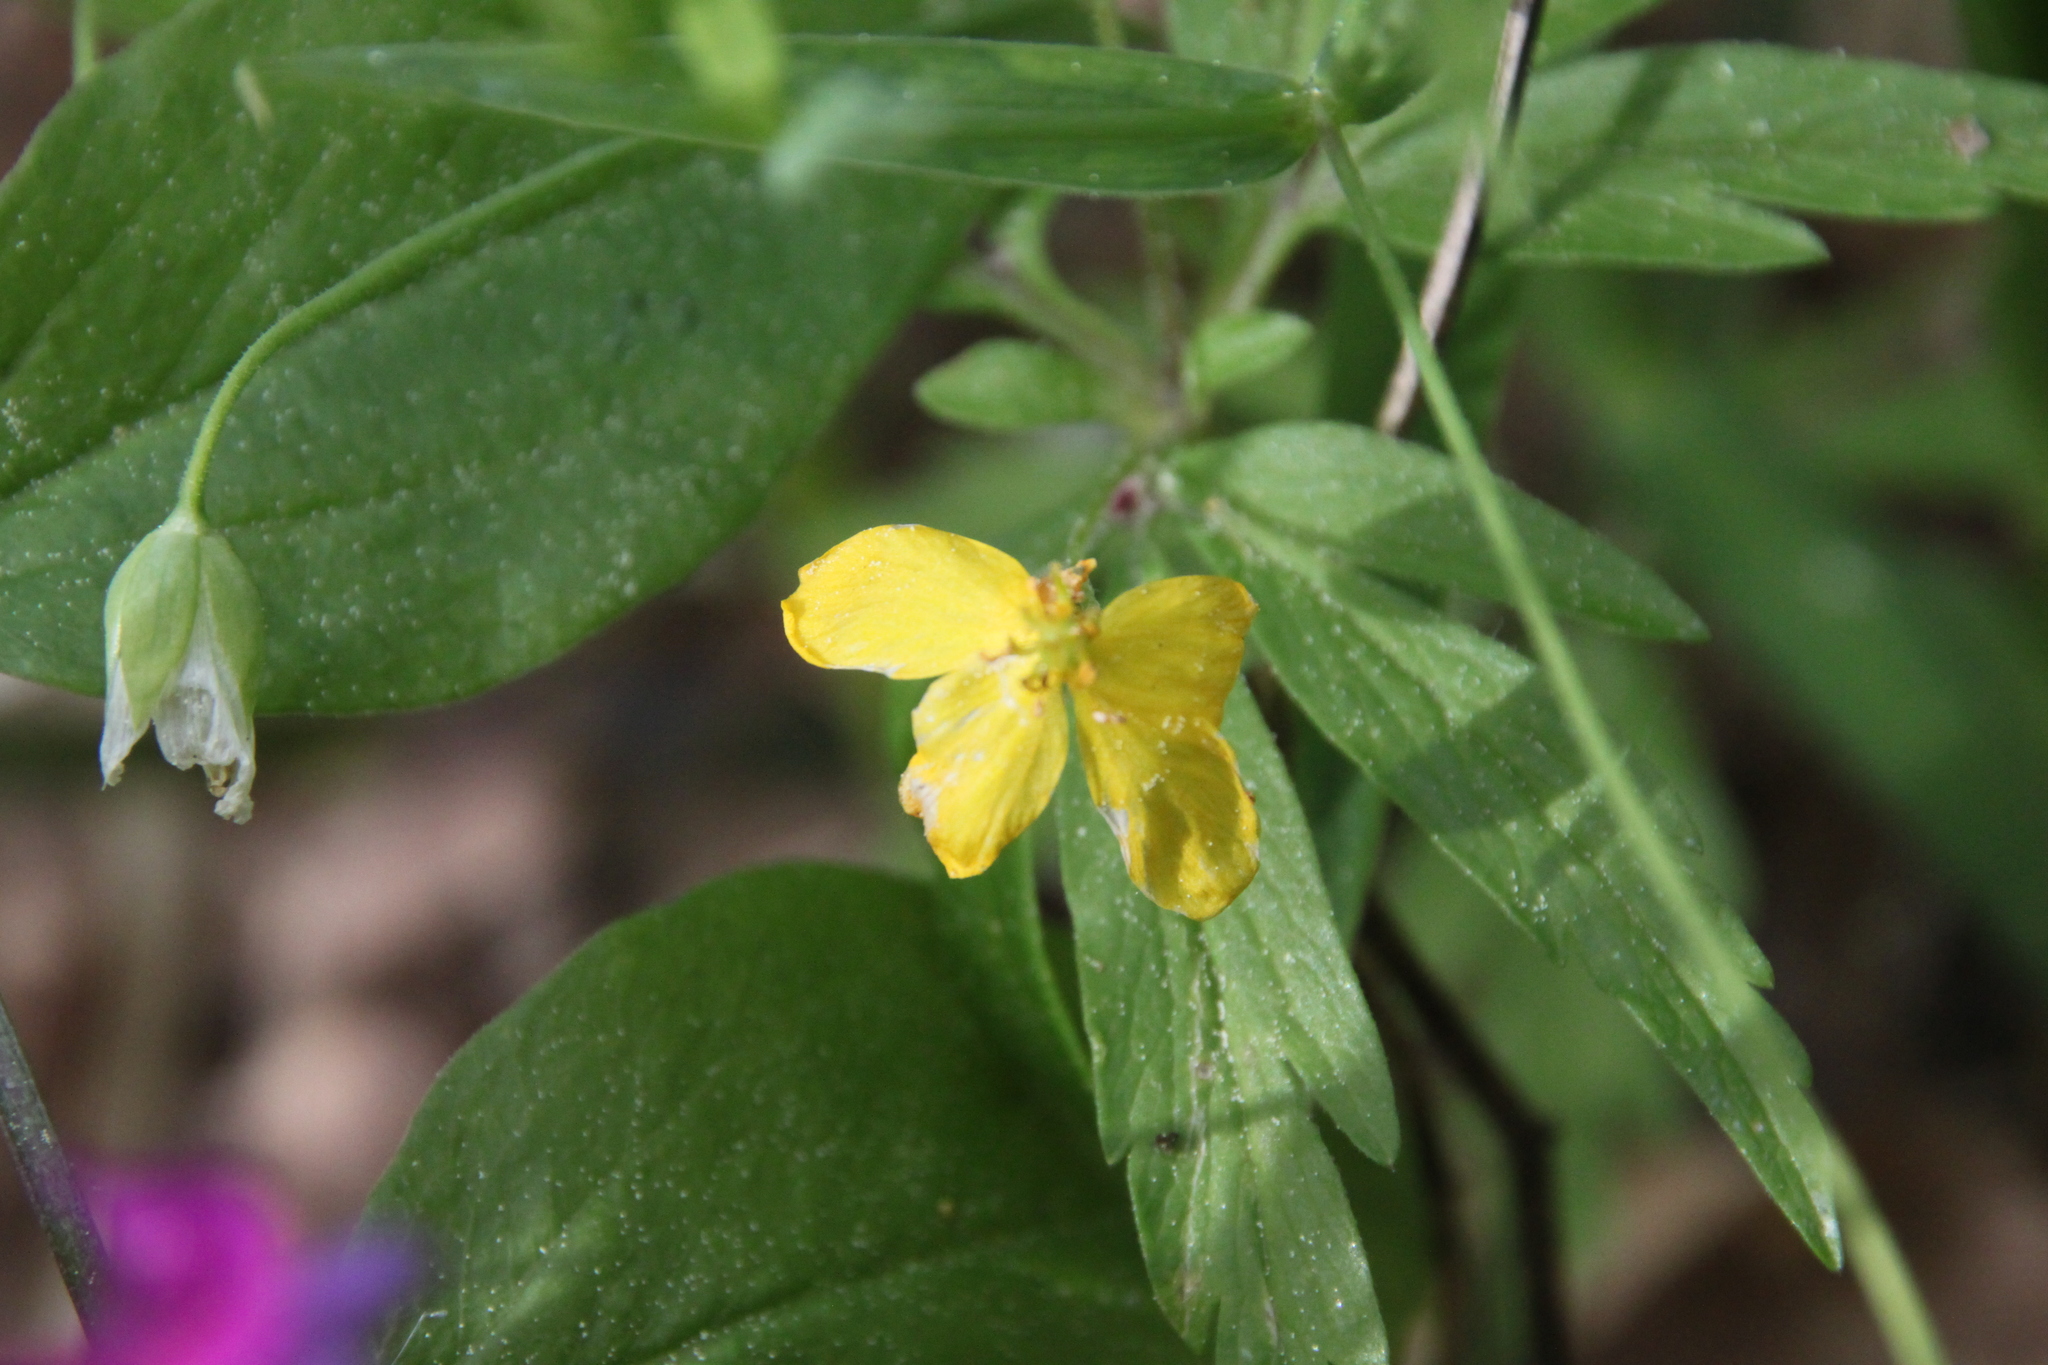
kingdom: Plantae
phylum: Tracheophyta
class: Magnoliopsida
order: Ranunculales
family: Ranunculaceae
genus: Anemone
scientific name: Anemone ranunculoides
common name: Yellow anemone
